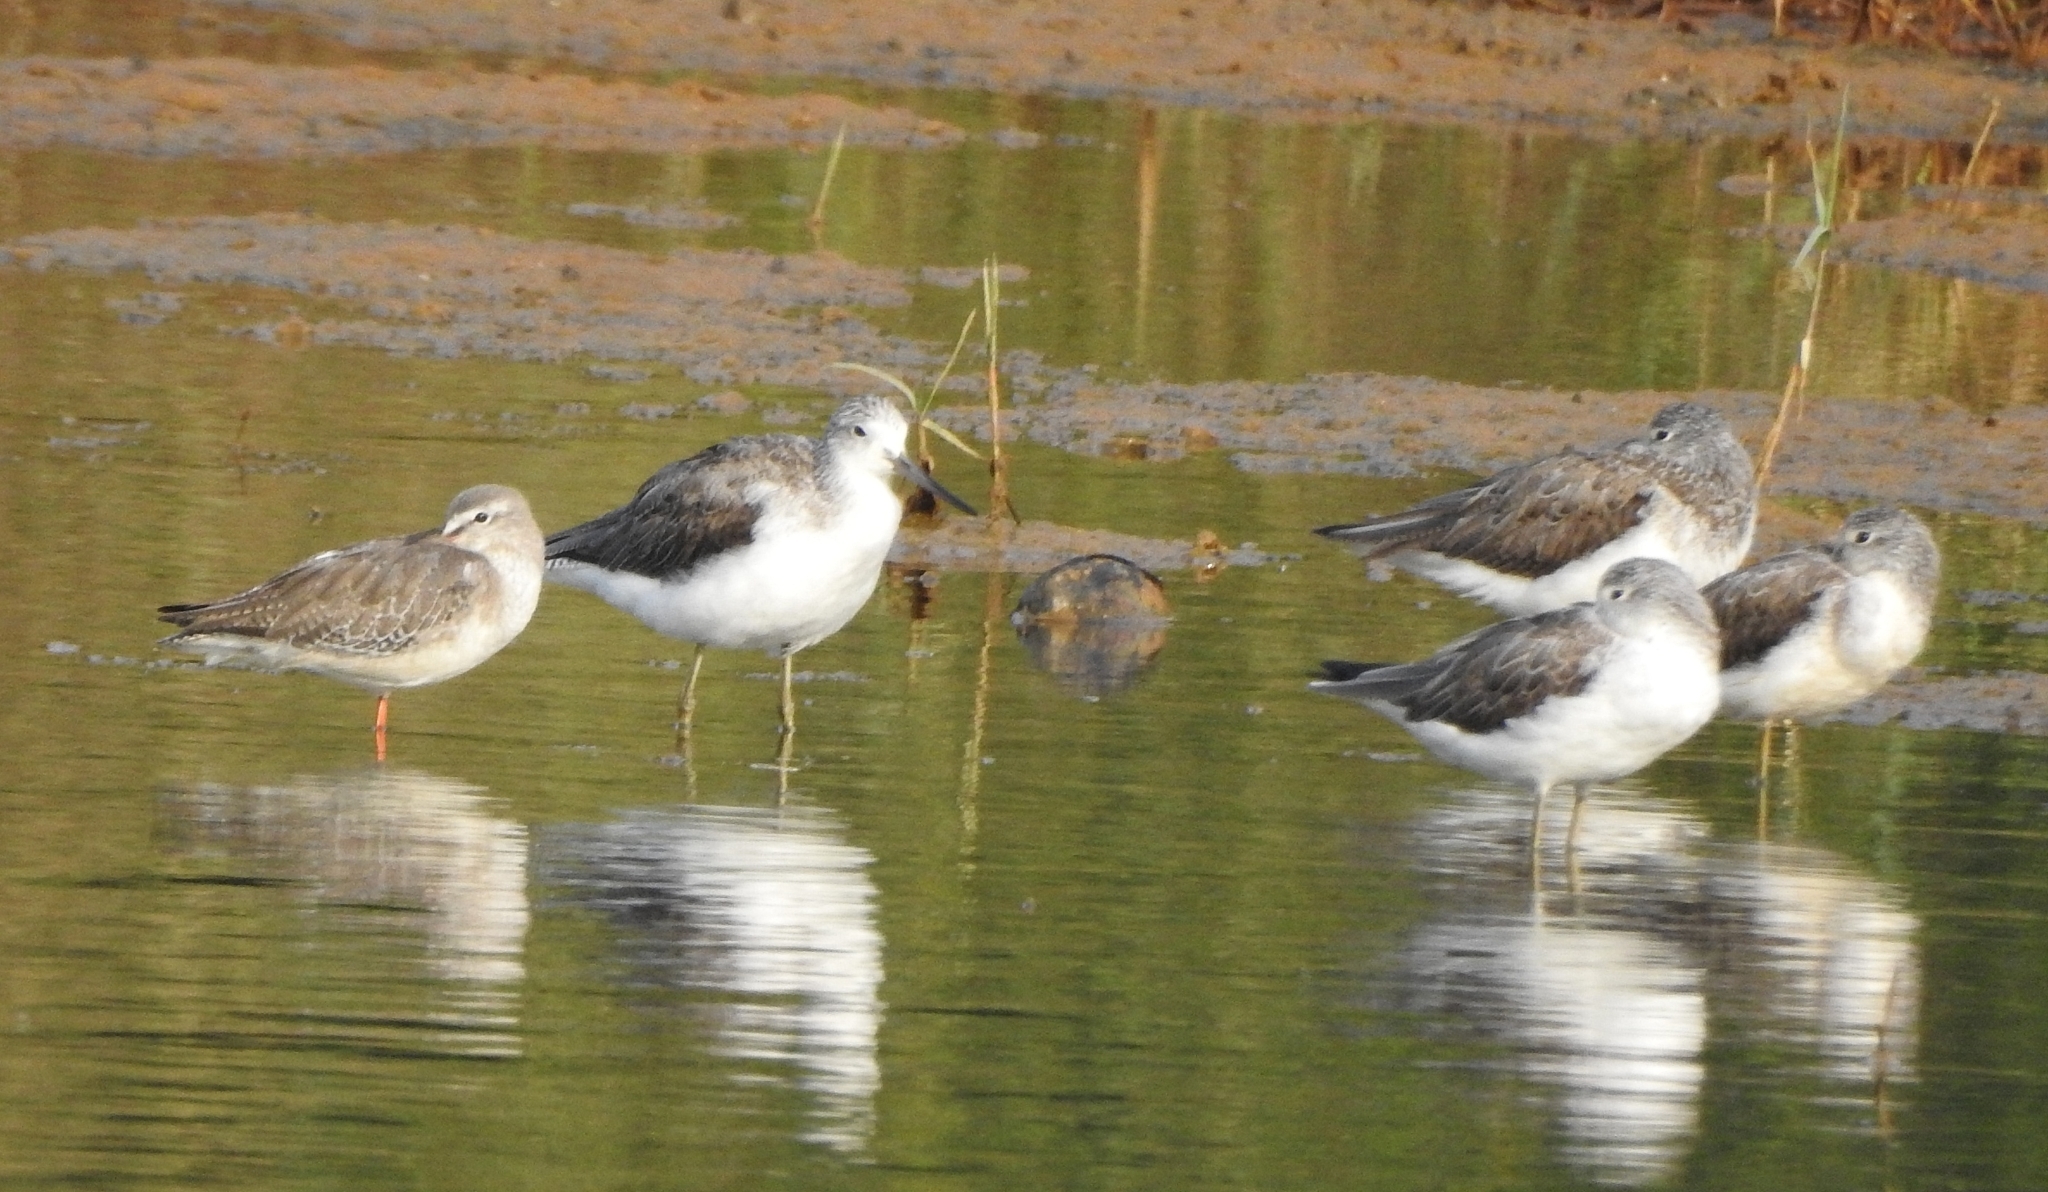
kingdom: Animalia
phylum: Chordata
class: Aves
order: Charadriiformes
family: Scolopacidae
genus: Tringa
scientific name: Tringa nebularia
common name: Common greenshank
